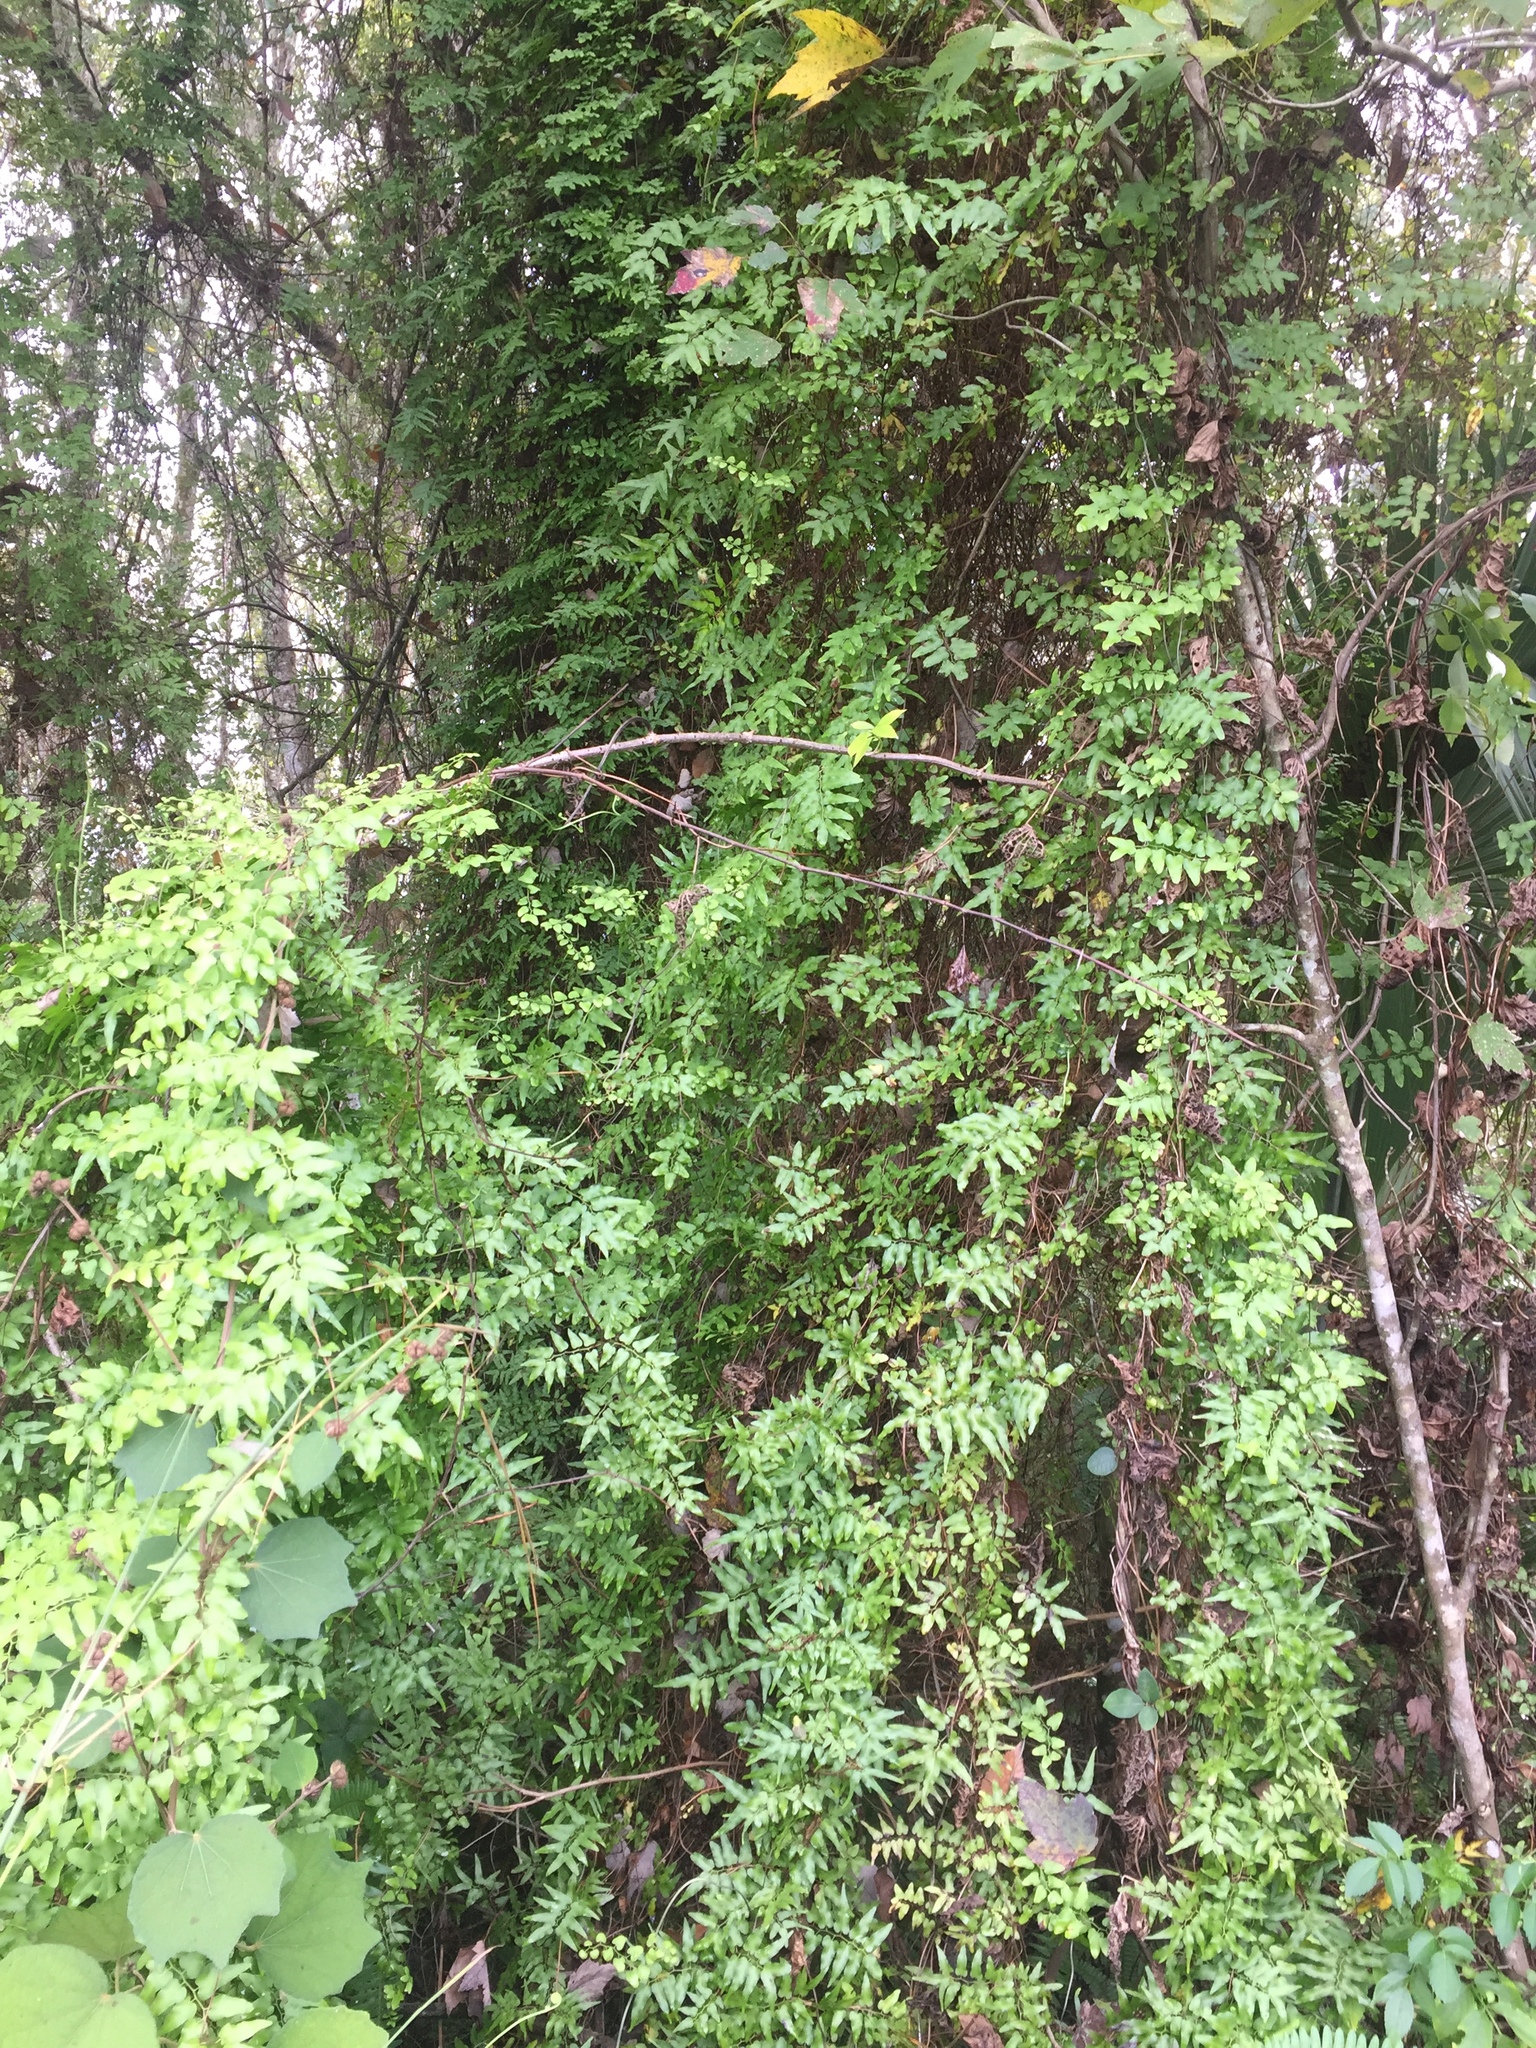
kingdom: Plantae
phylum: Tracheophyta
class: Polypodiopsida
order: Schizaeales
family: Lygodiaceae
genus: Lygodium
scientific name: Lygodium microphyllum
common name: Small-leaf climbing fern
